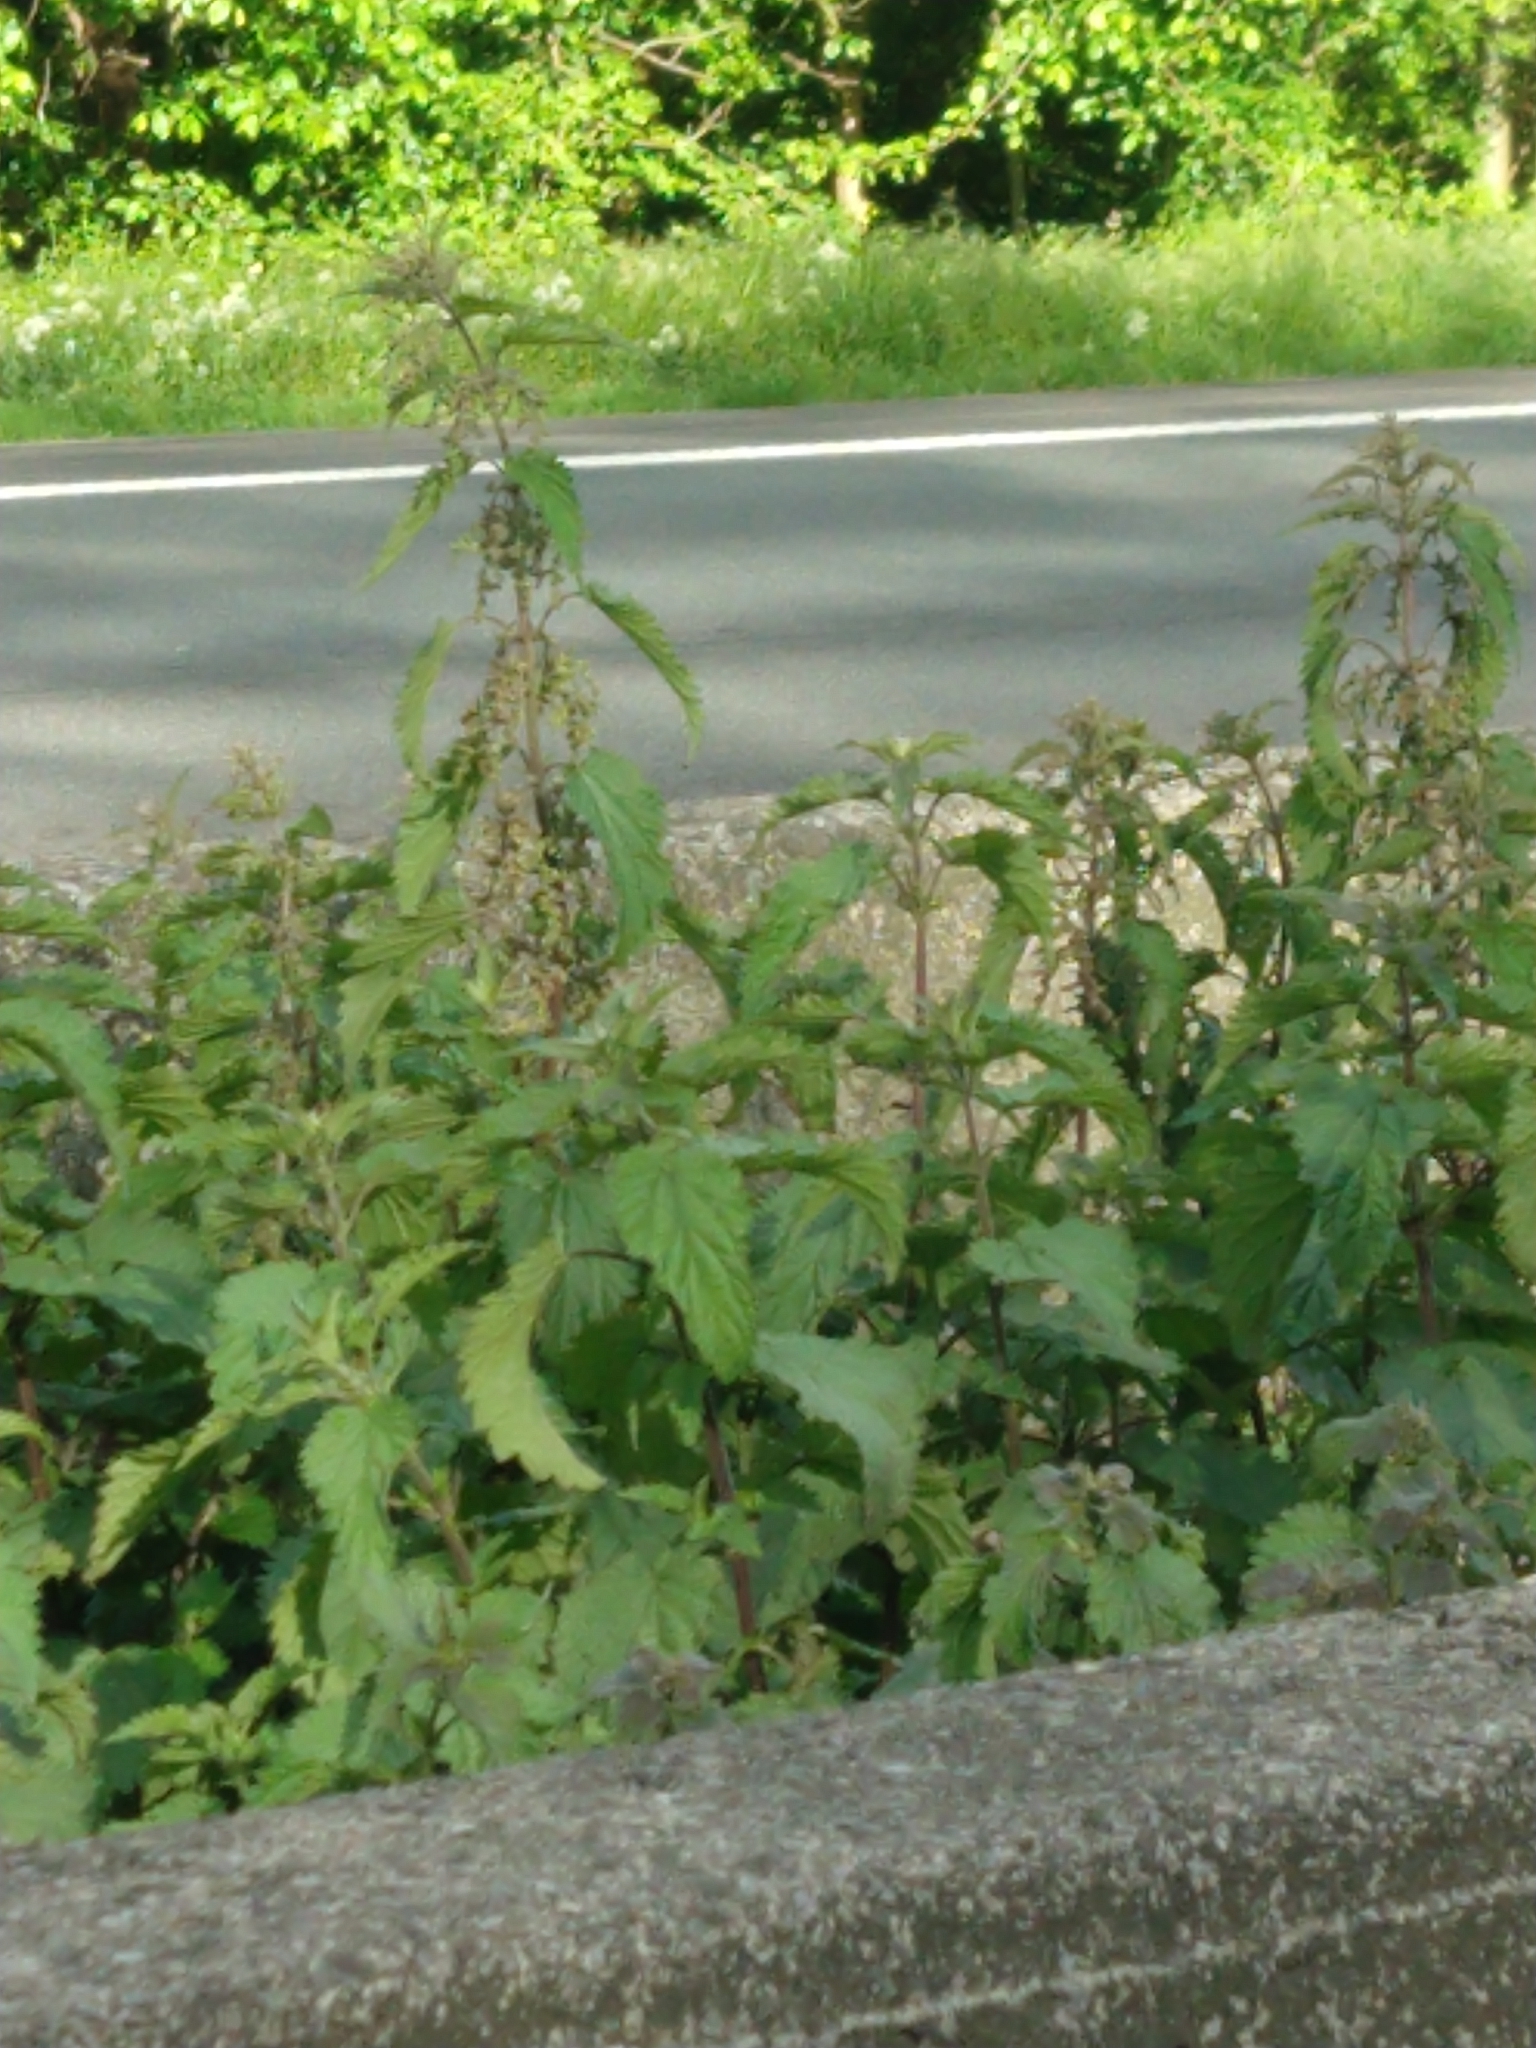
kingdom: Plantae
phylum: Tracheophyta
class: Magnoliopsida
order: Rosales
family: Urticaceae
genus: Urtica
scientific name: Urtica dioica
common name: Common nettle
